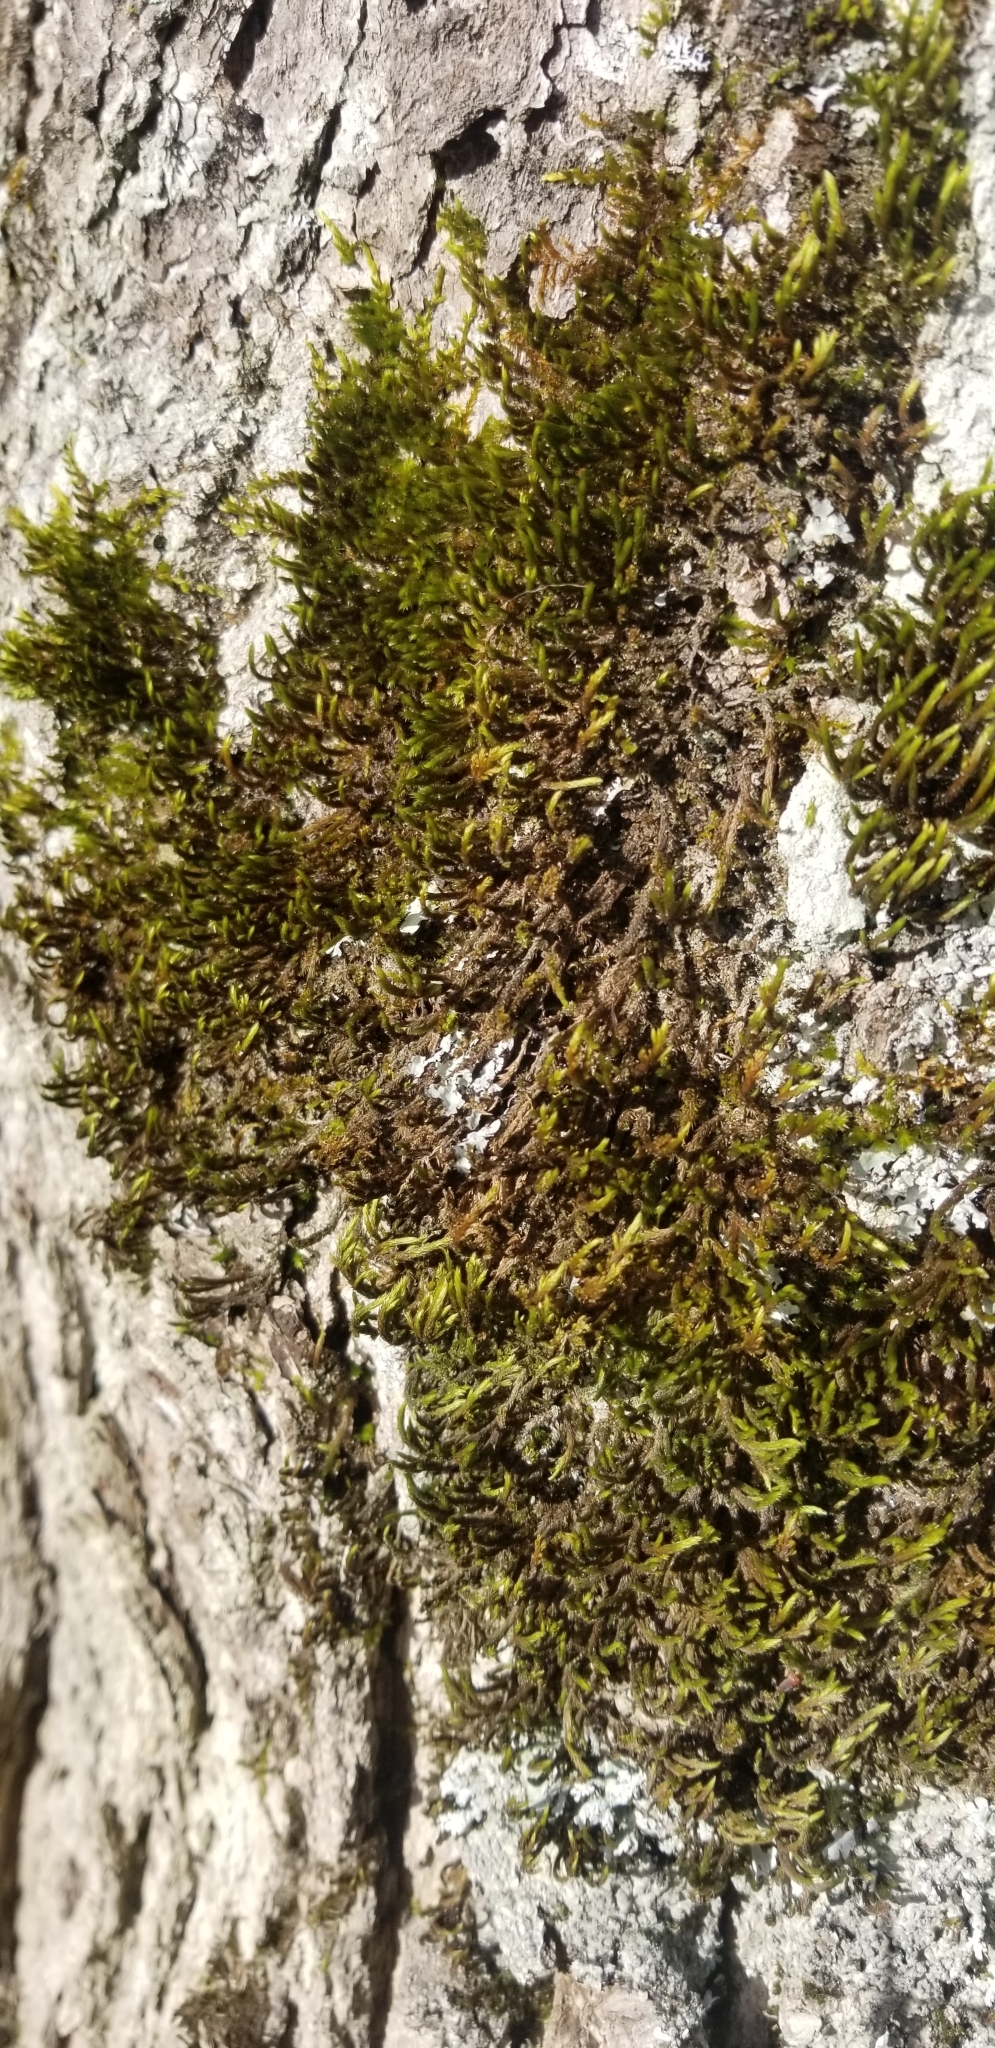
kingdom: Plantae
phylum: Bryophyta
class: Bryopsida
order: Hypnales
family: Leucodontaceae
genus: Leucodon
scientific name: Leucodon sciuroides
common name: Squirrel-tail moss
